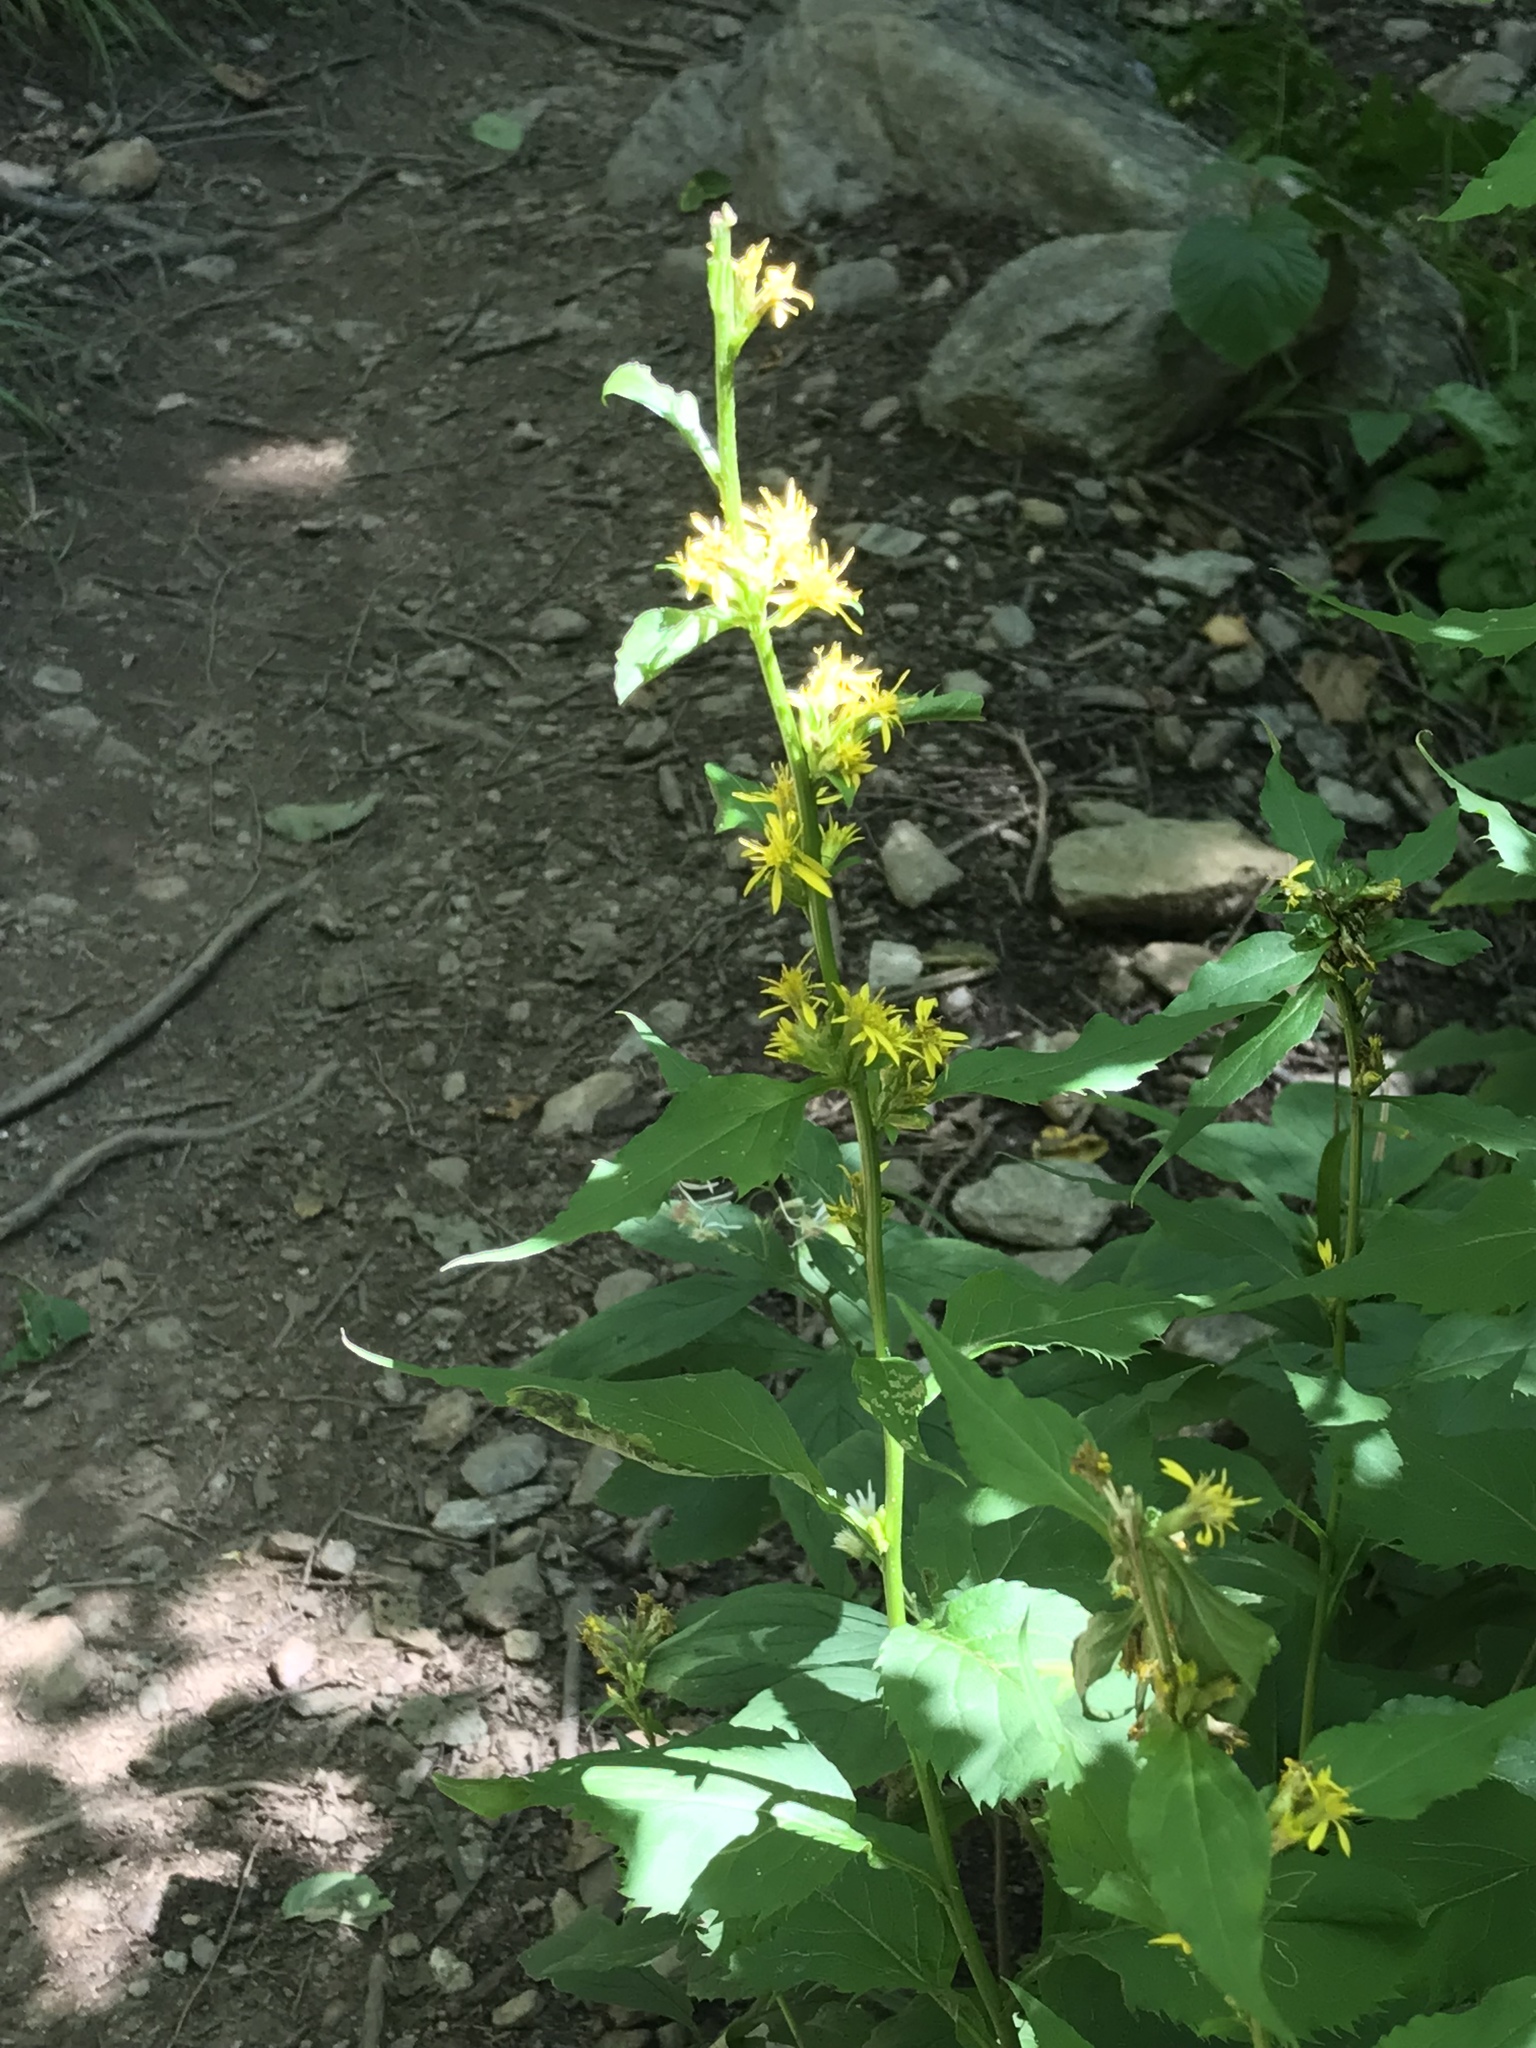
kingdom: Plantae
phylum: Tracheophyta
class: Magnoliopsida
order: Asterales
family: Asteraceae
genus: Solidago
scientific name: Solidago flexicaulis
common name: Zig-zag goldenrod
